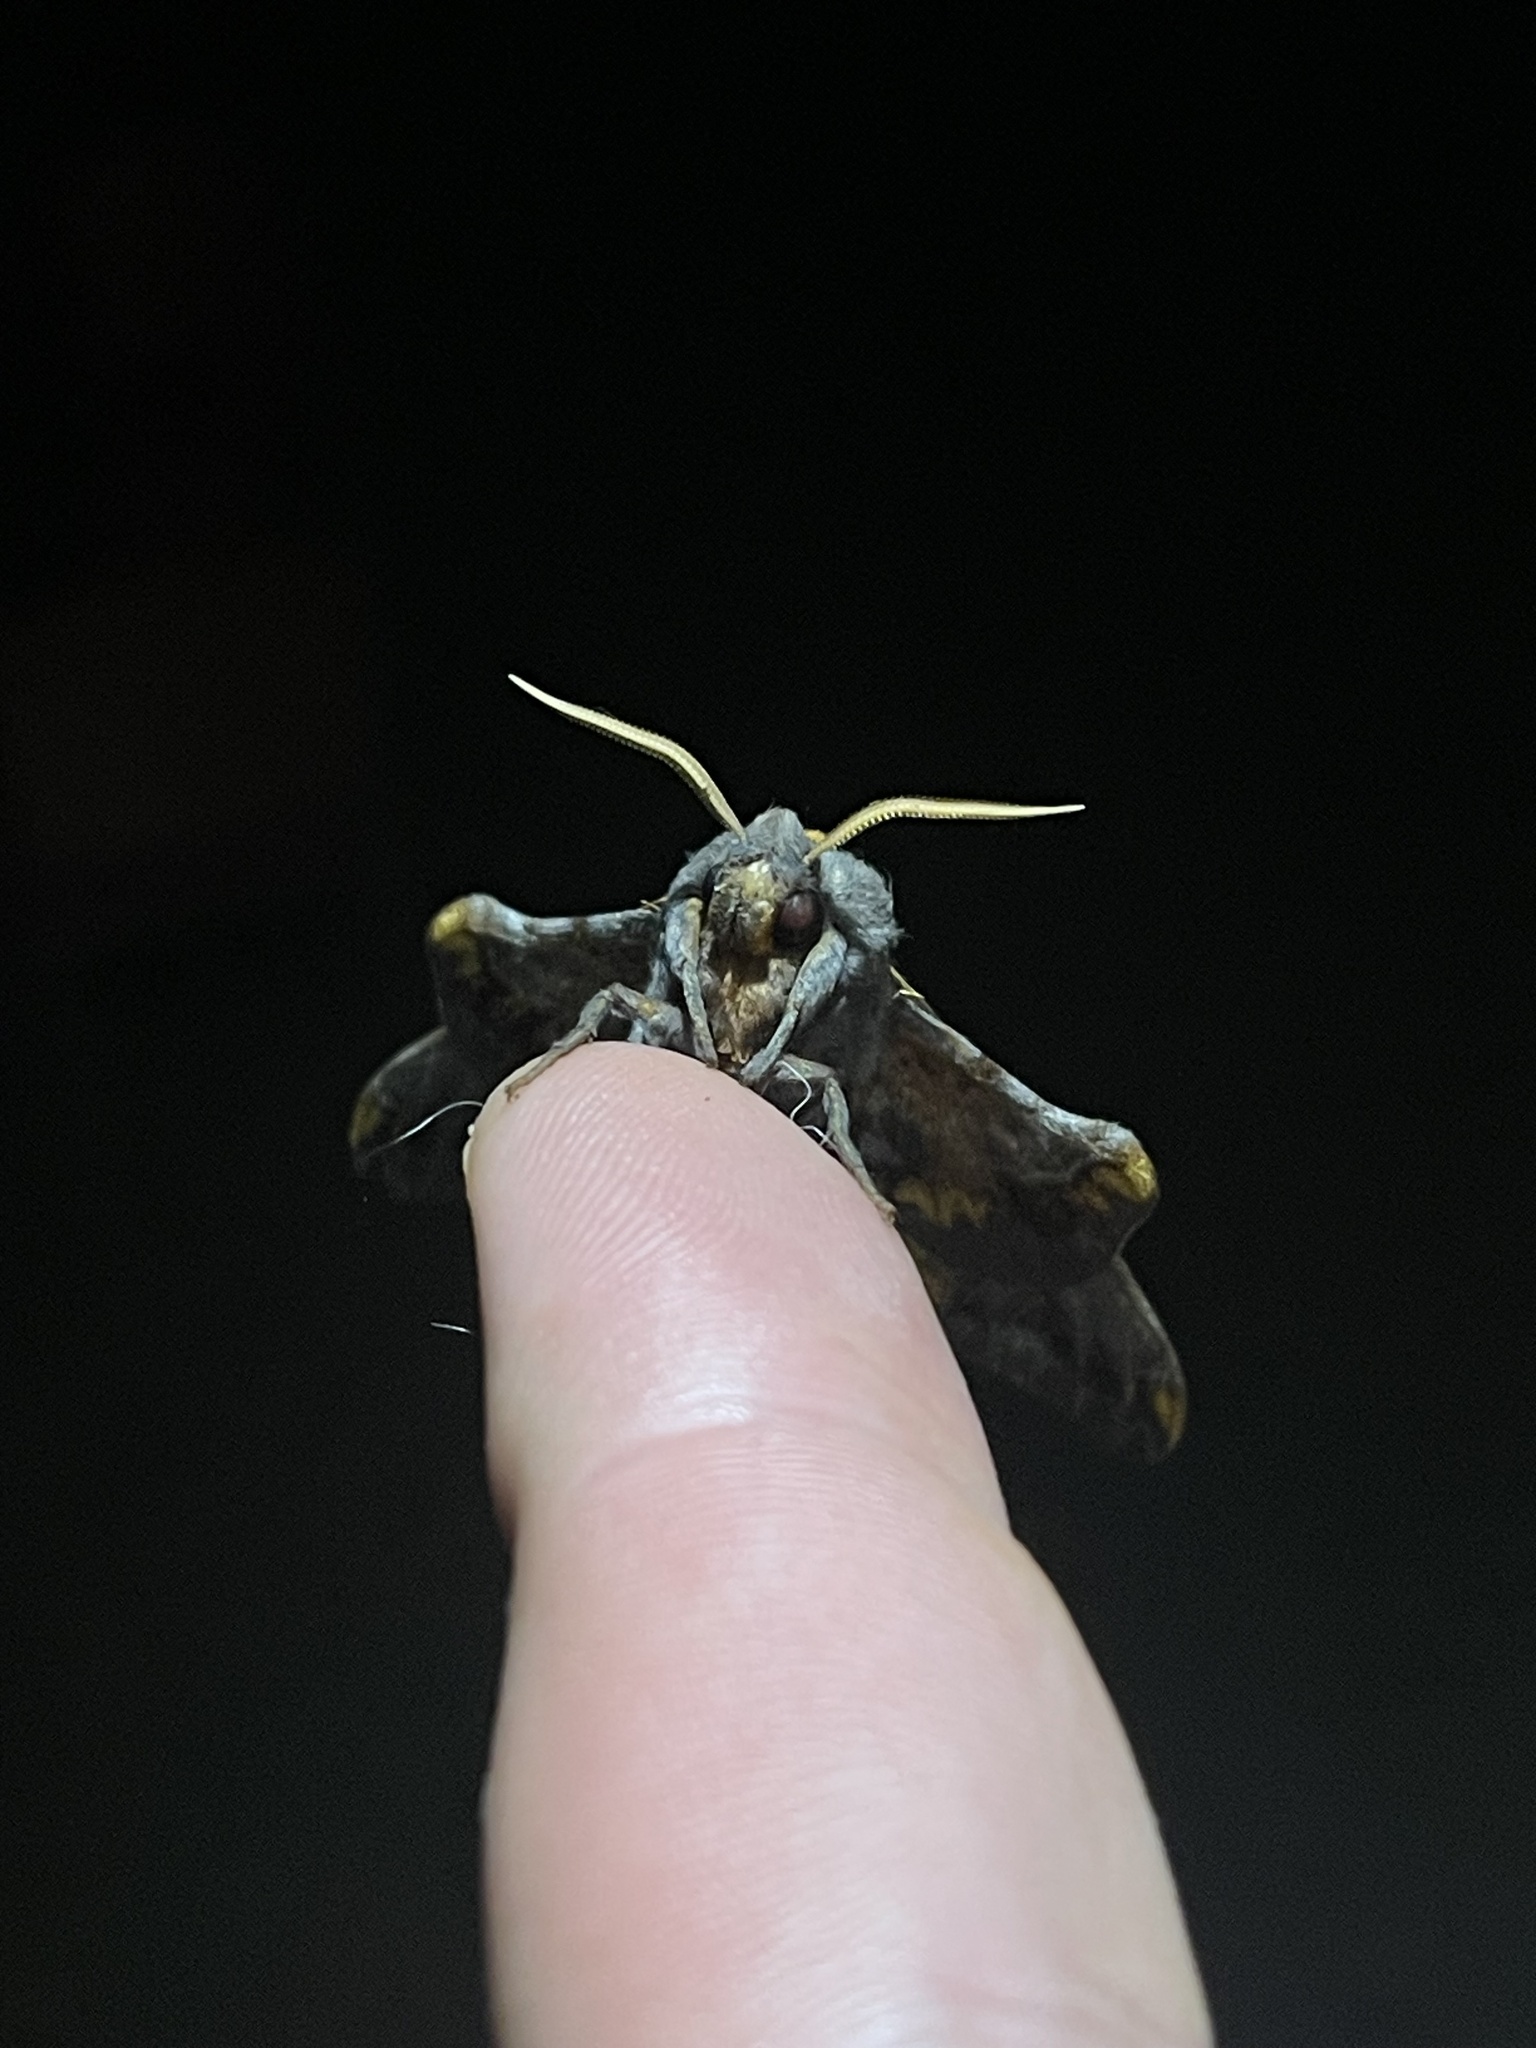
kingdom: Animalia
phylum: Arthropoda
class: Insecta
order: Lepidoptera
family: Sphingidae
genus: Paonias
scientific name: Paonias myops
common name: Small-eyed sphinx
